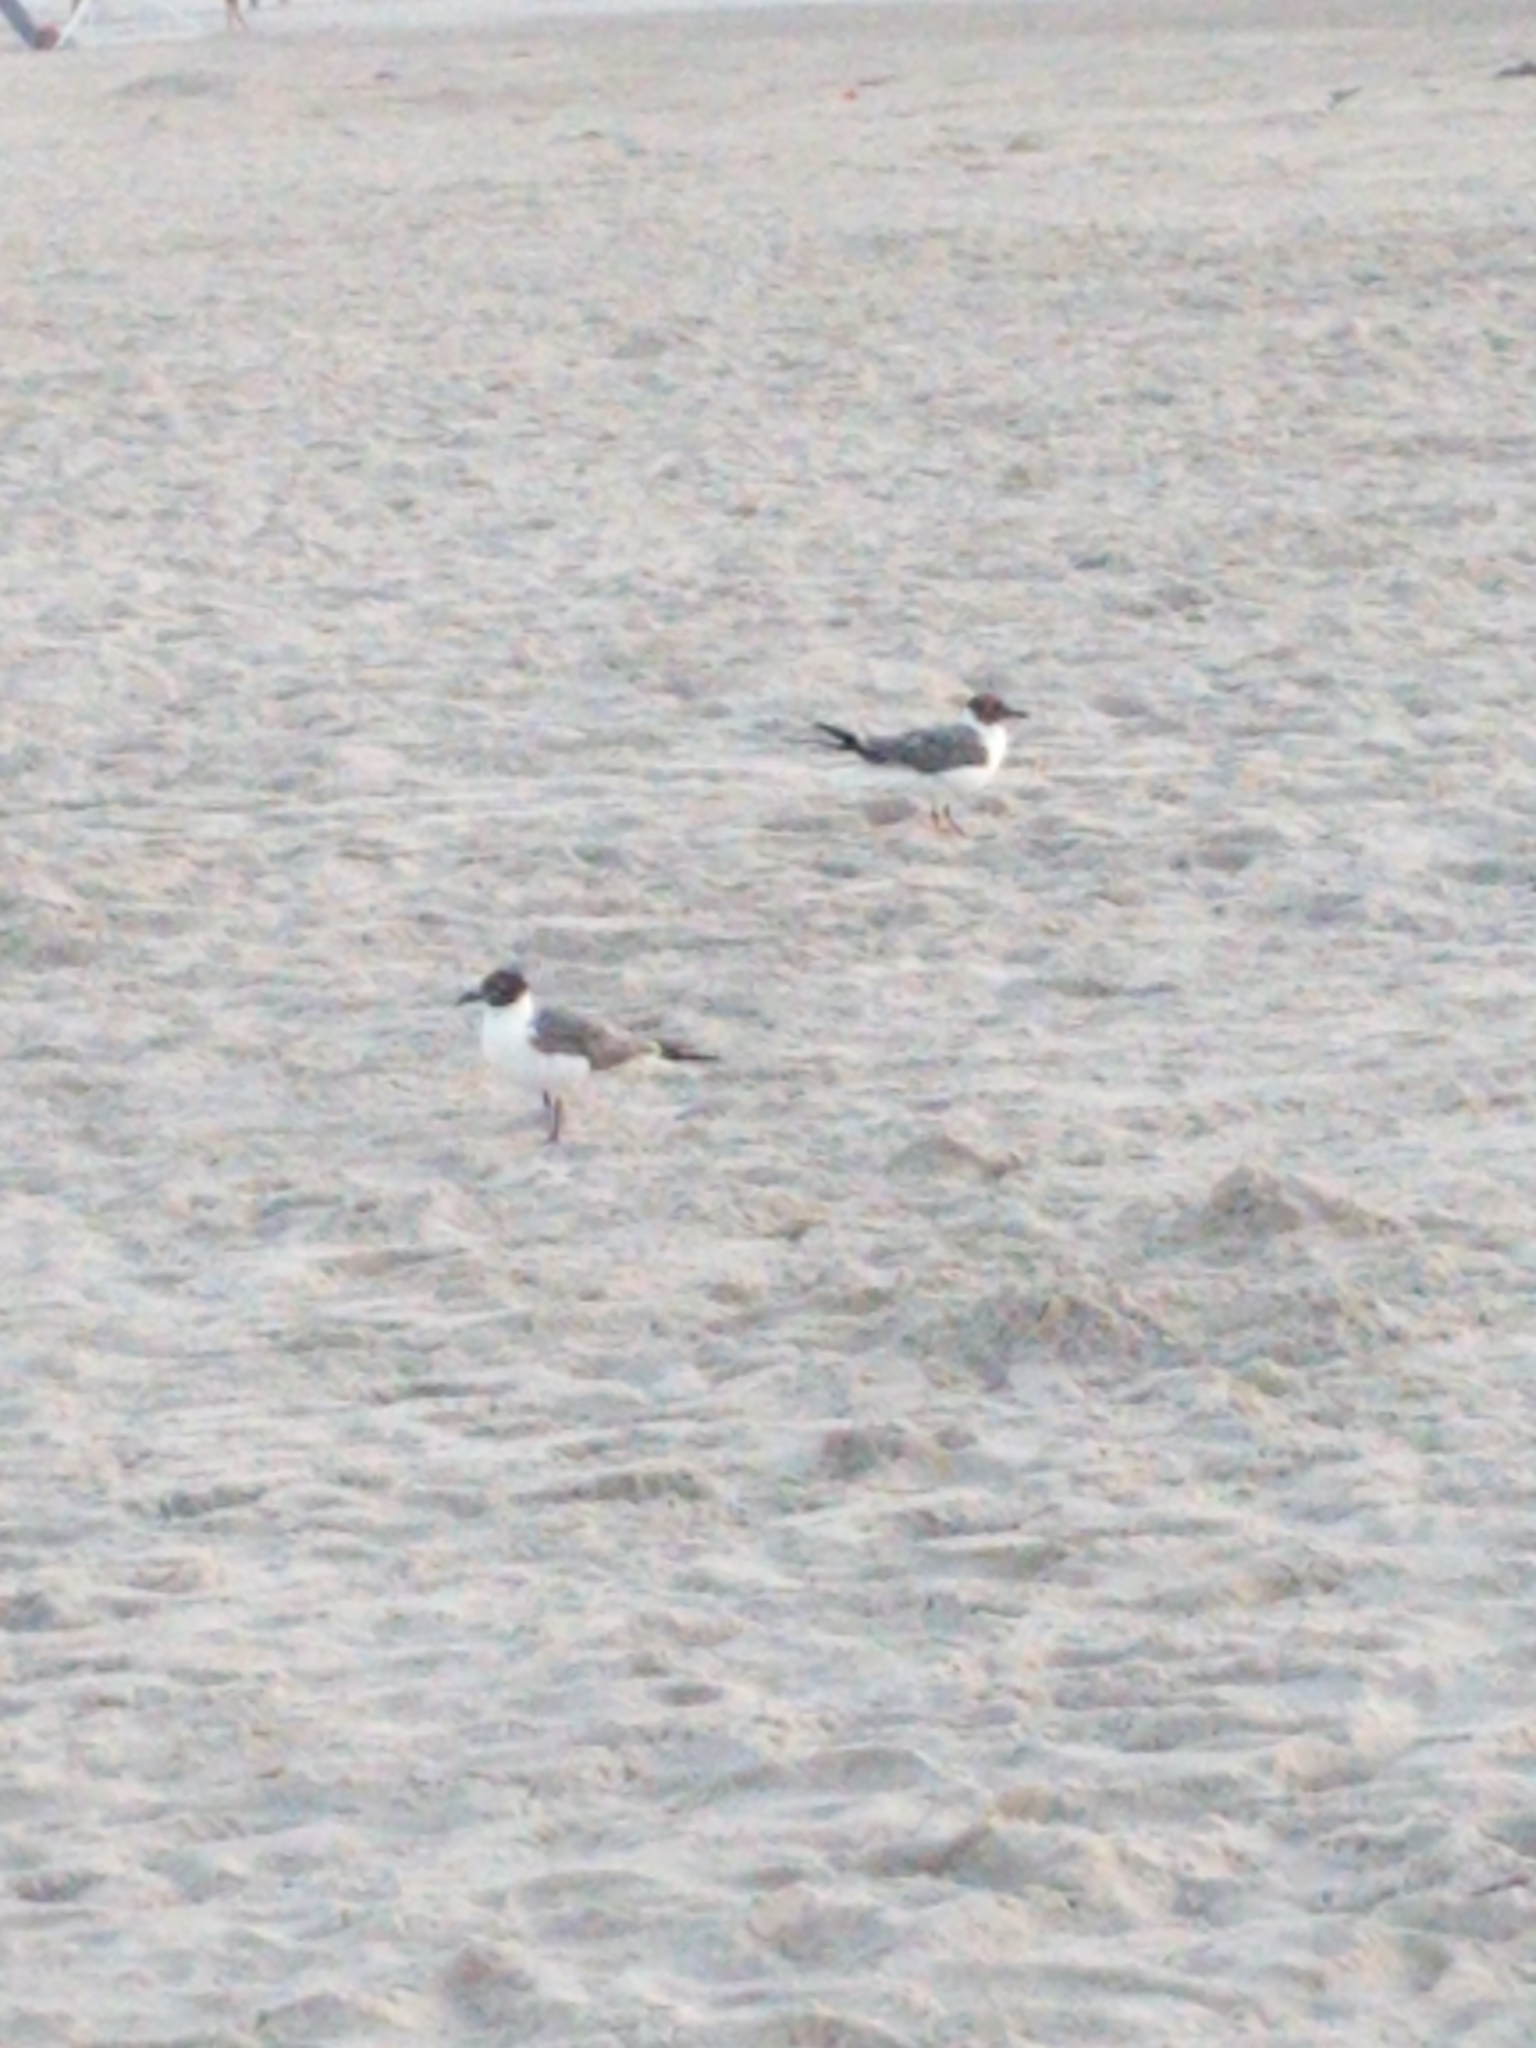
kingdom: Animalia
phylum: Chordata
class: Aves
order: Charadriiformes
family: Laridae
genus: Leucophaeus
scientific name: Leucophaeus atricilla
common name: Laughing gull
